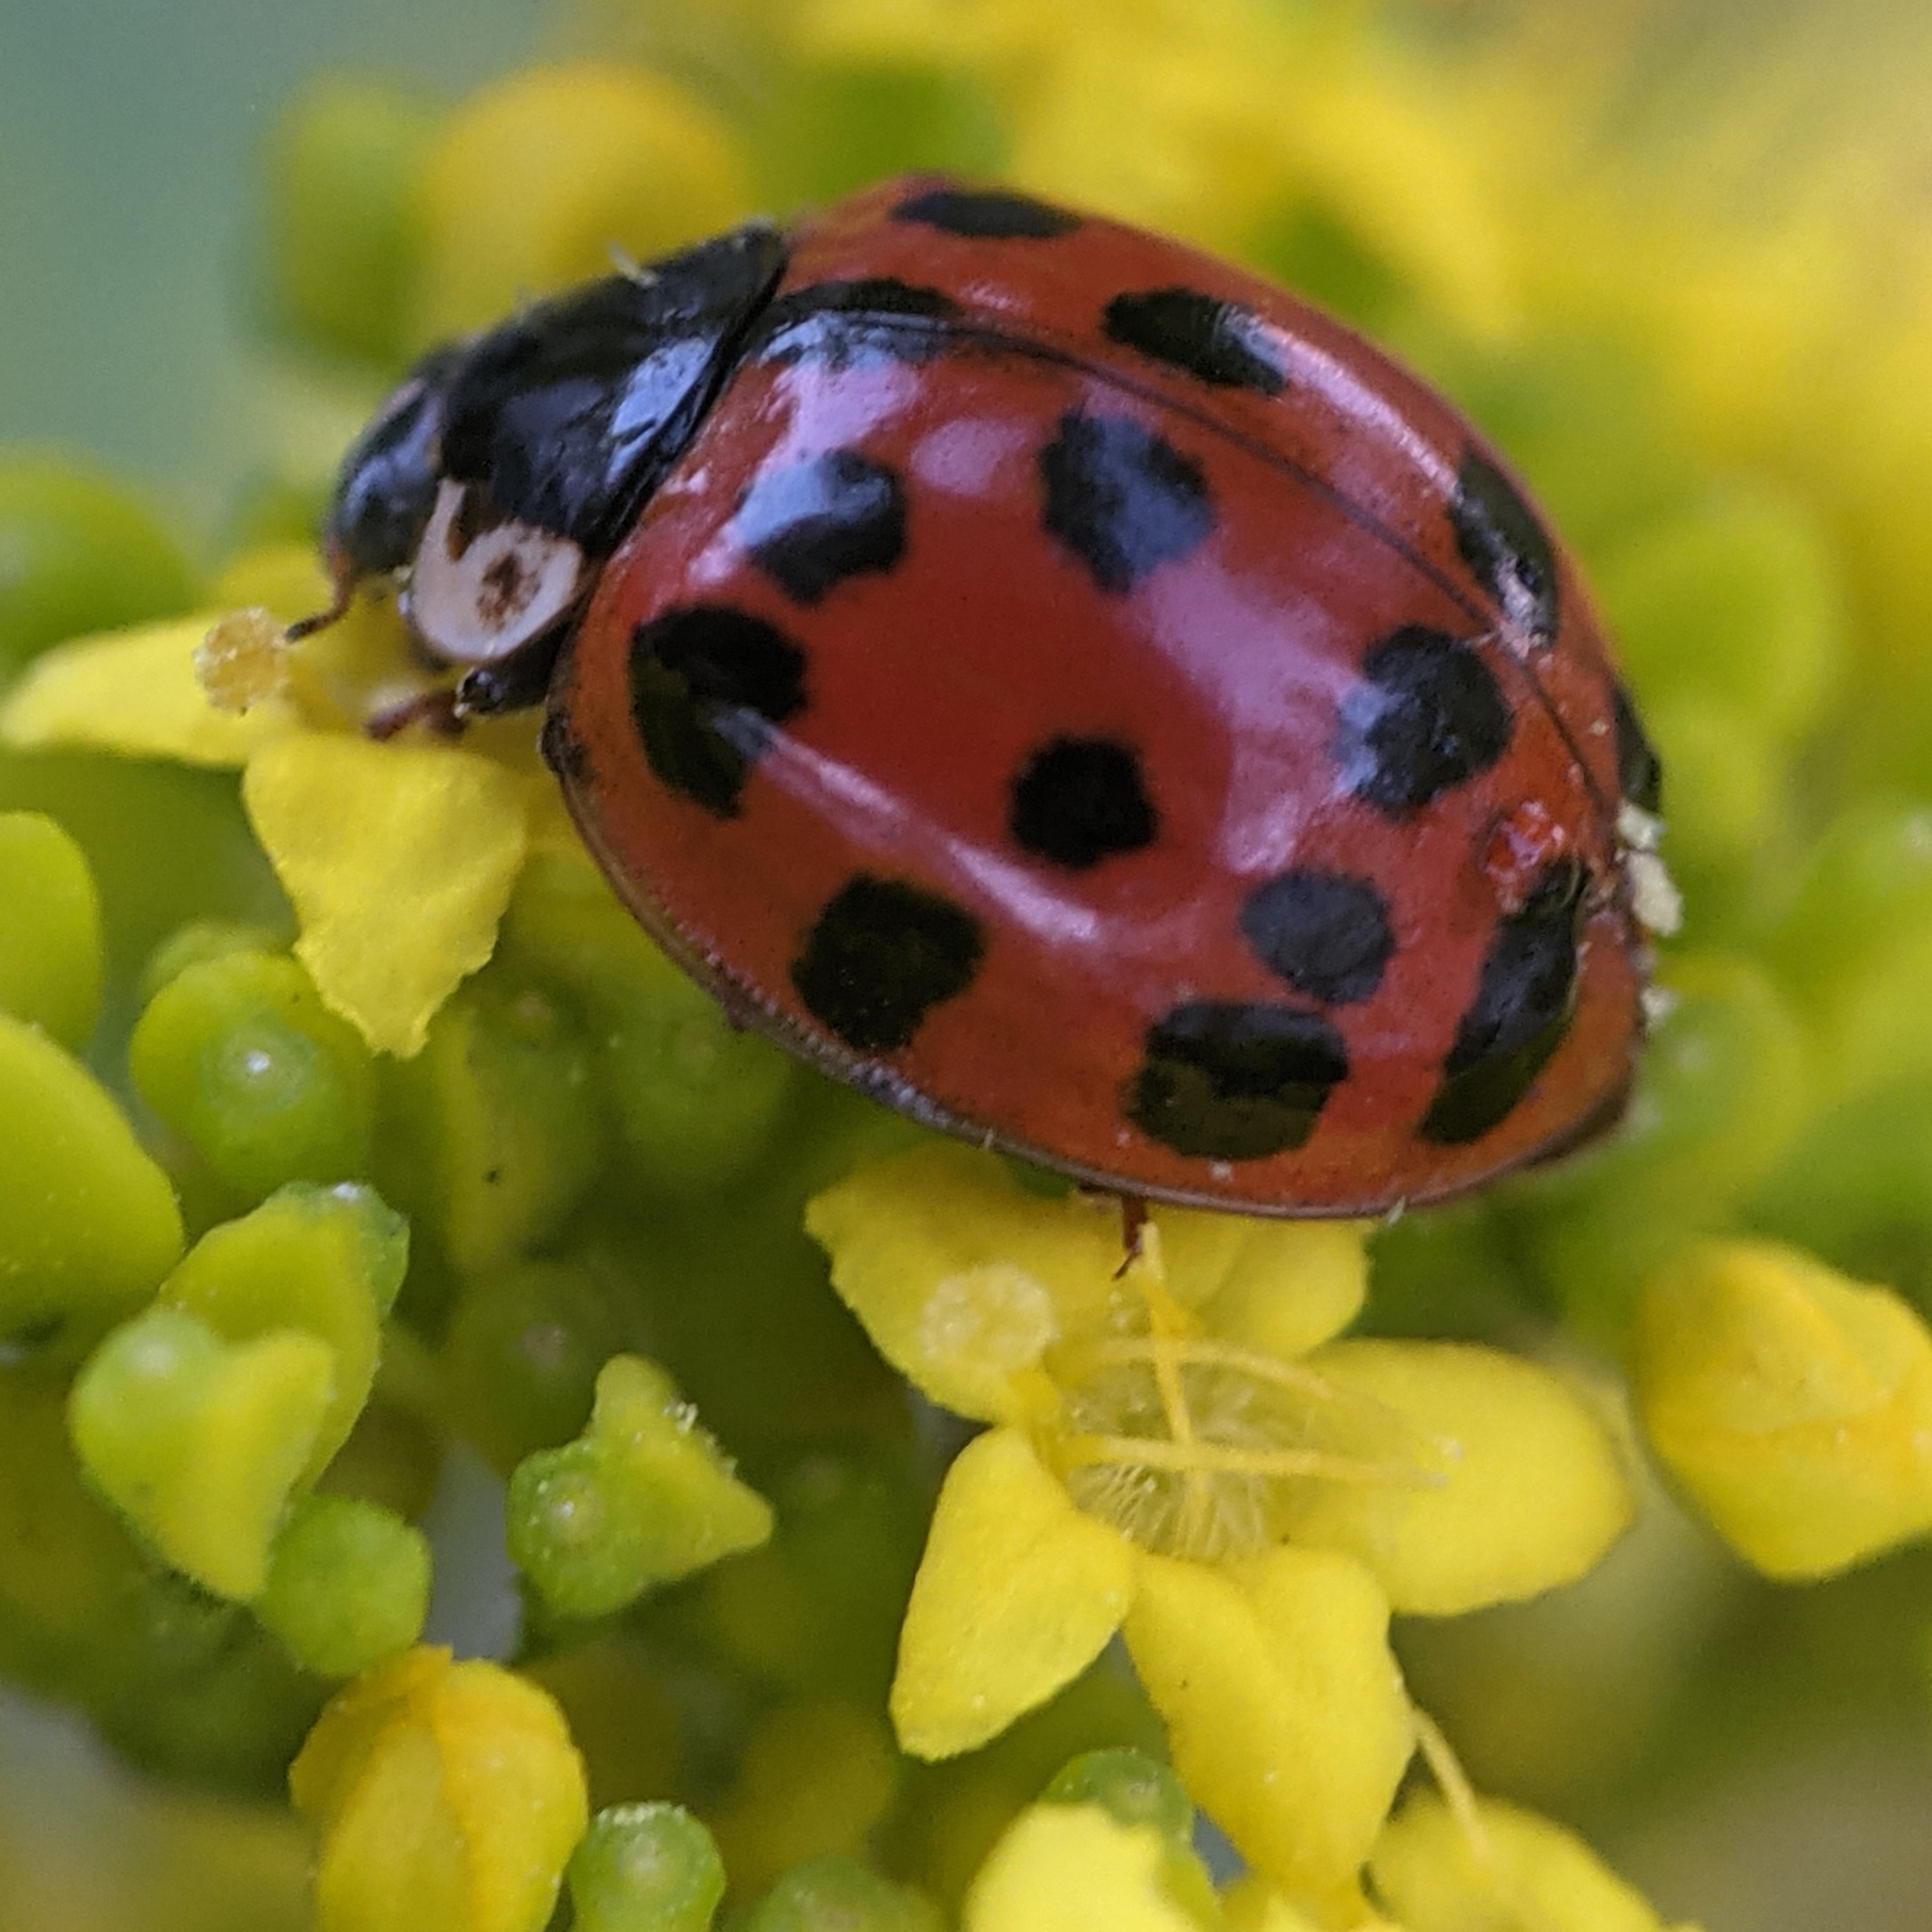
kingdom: Animalia
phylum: Arthropoda
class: Insecta
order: Coleoptera
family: Coccinellidae
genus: Harmonia
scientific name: Harmonia axyridis
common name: Harlequin ladybird
